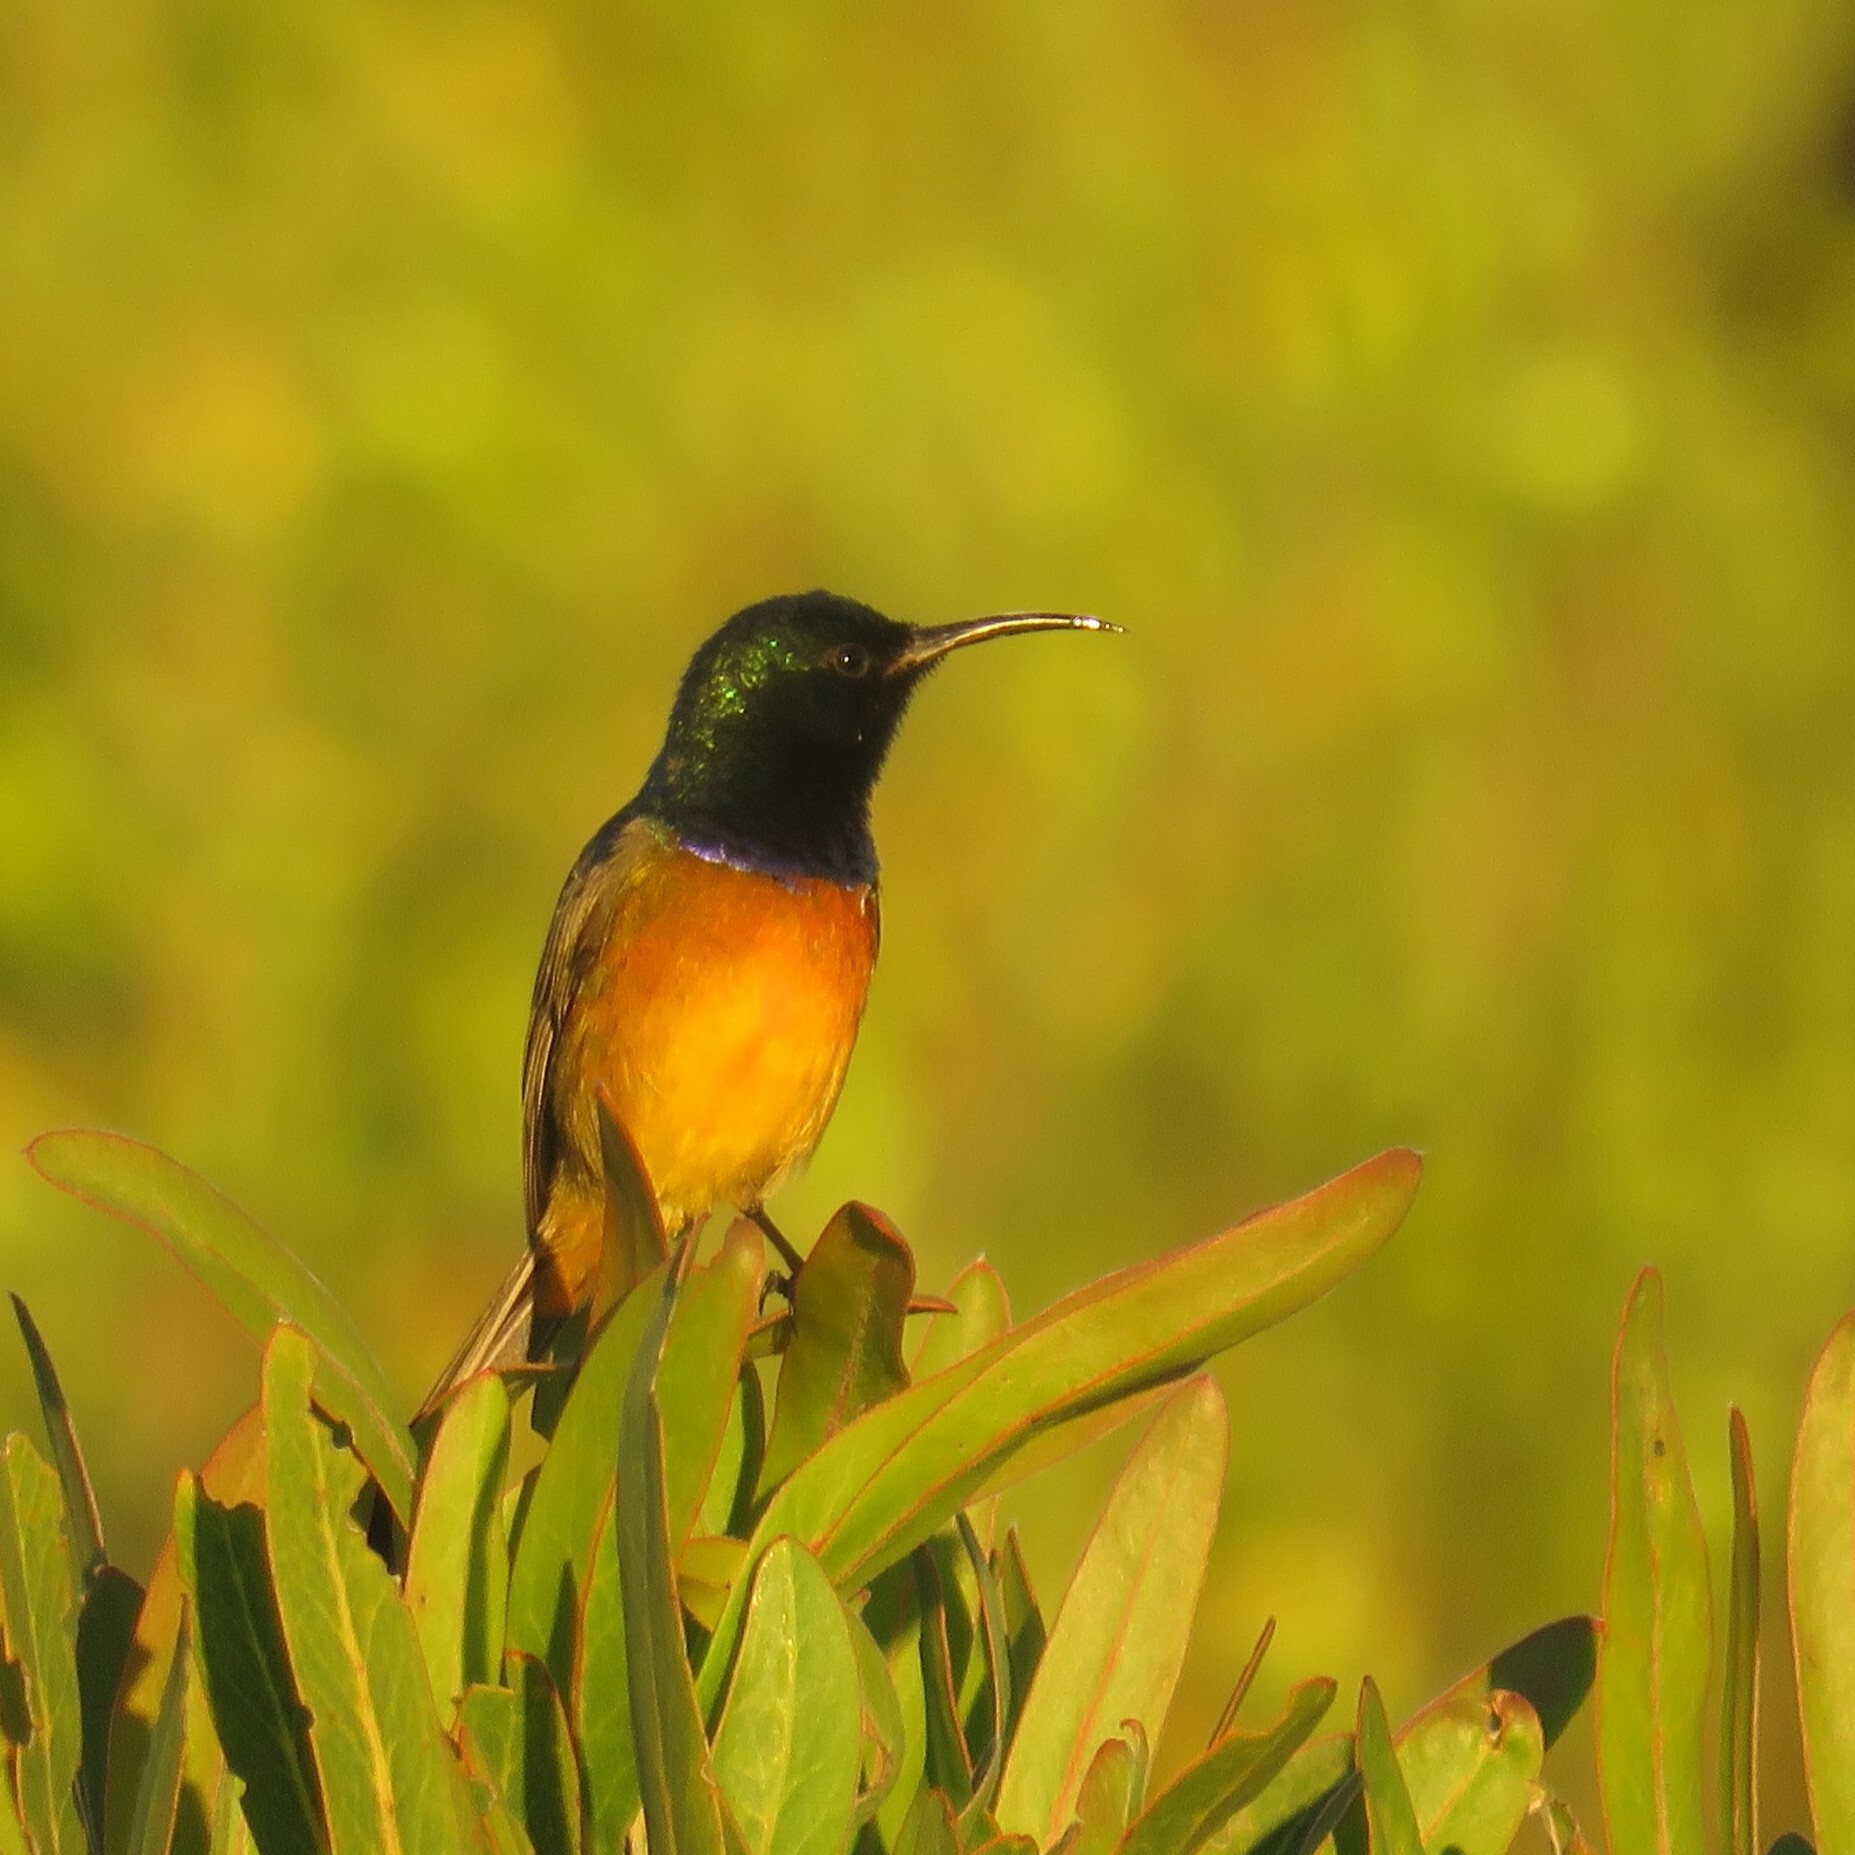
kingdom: Animalia
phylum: Chordata
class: Aves
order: Passeriformes
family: Nectariniidae
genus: Anthobaphes
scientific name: Anthobaphes violacea
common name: Orange-breasted sunbird
